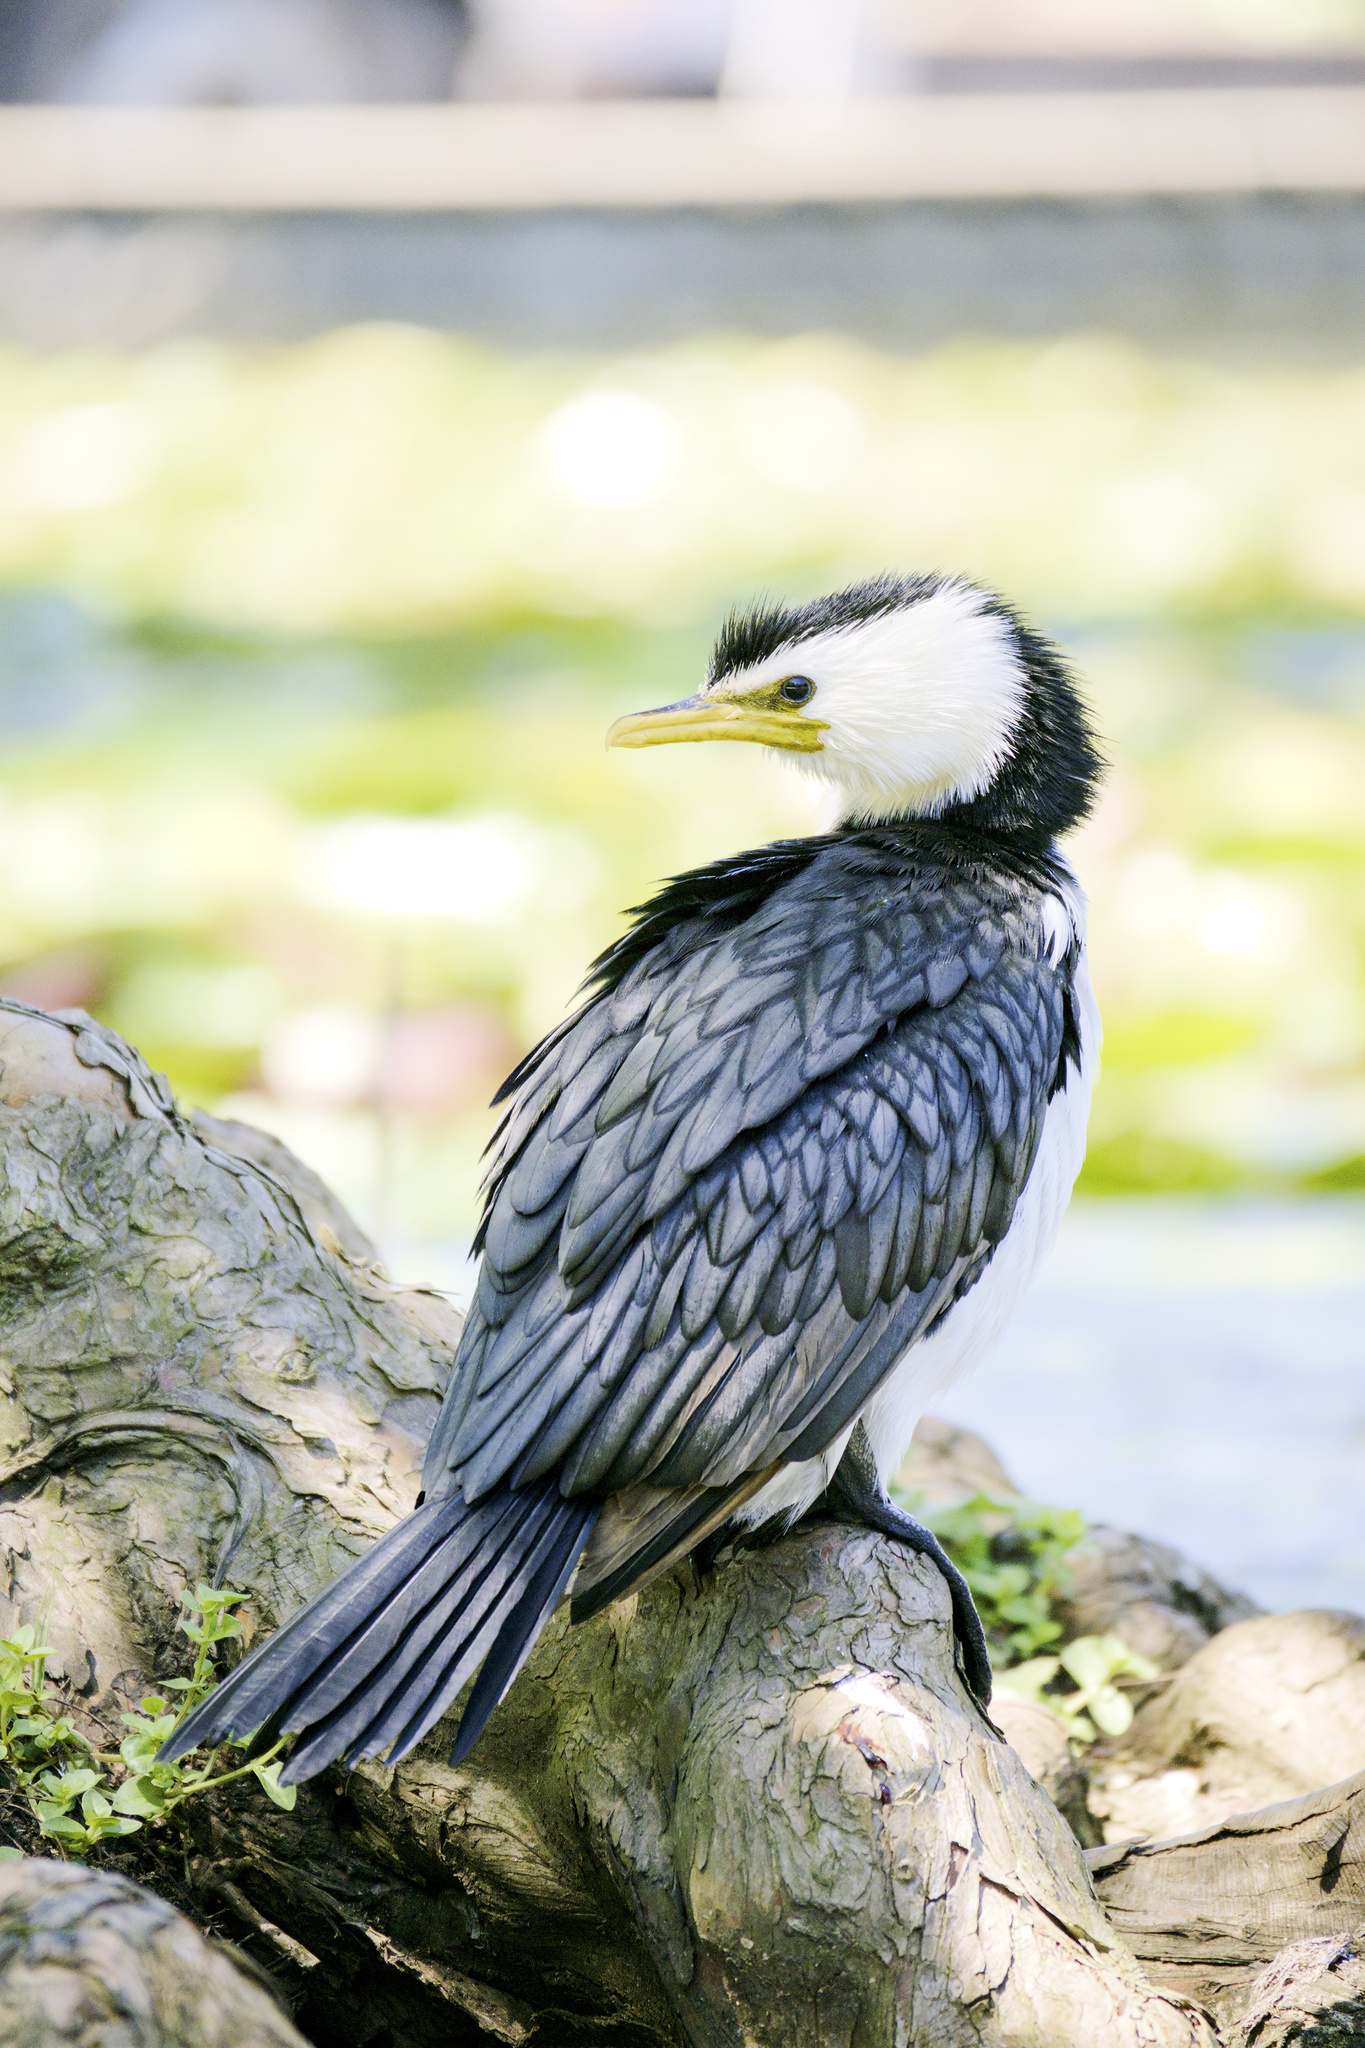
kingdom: Animalia
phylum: Chordata
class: Aves
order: Suliformes
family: Phalacrocoracidae
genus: Microcarbo
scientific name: Microcarbo melanoleucos
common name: Little pied cormorant
